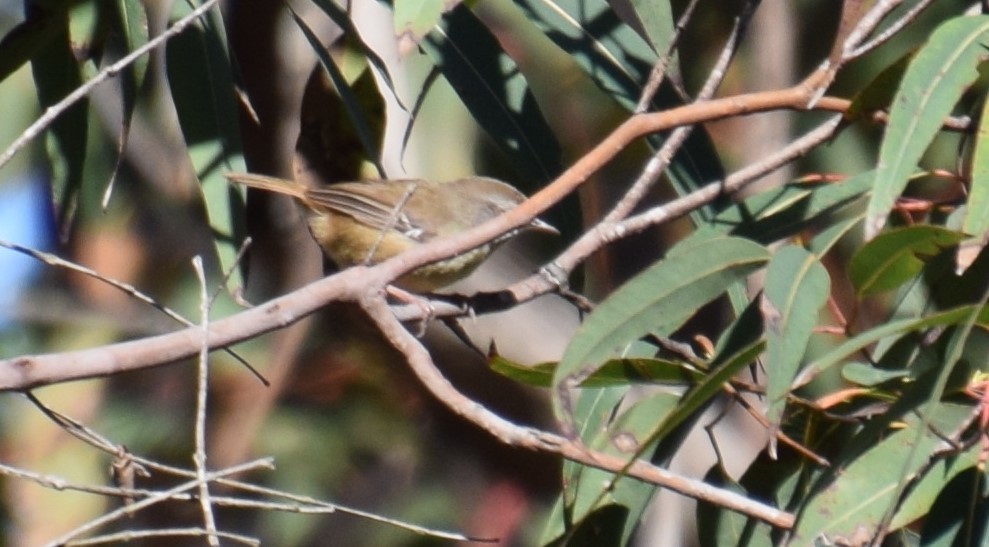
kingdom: Animalia
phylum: Chordata
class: Aves
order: Passeriformes
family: Acanthizidae
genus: Sericornis
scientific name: Sericornis frontalis
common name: White-browed scrubwren
